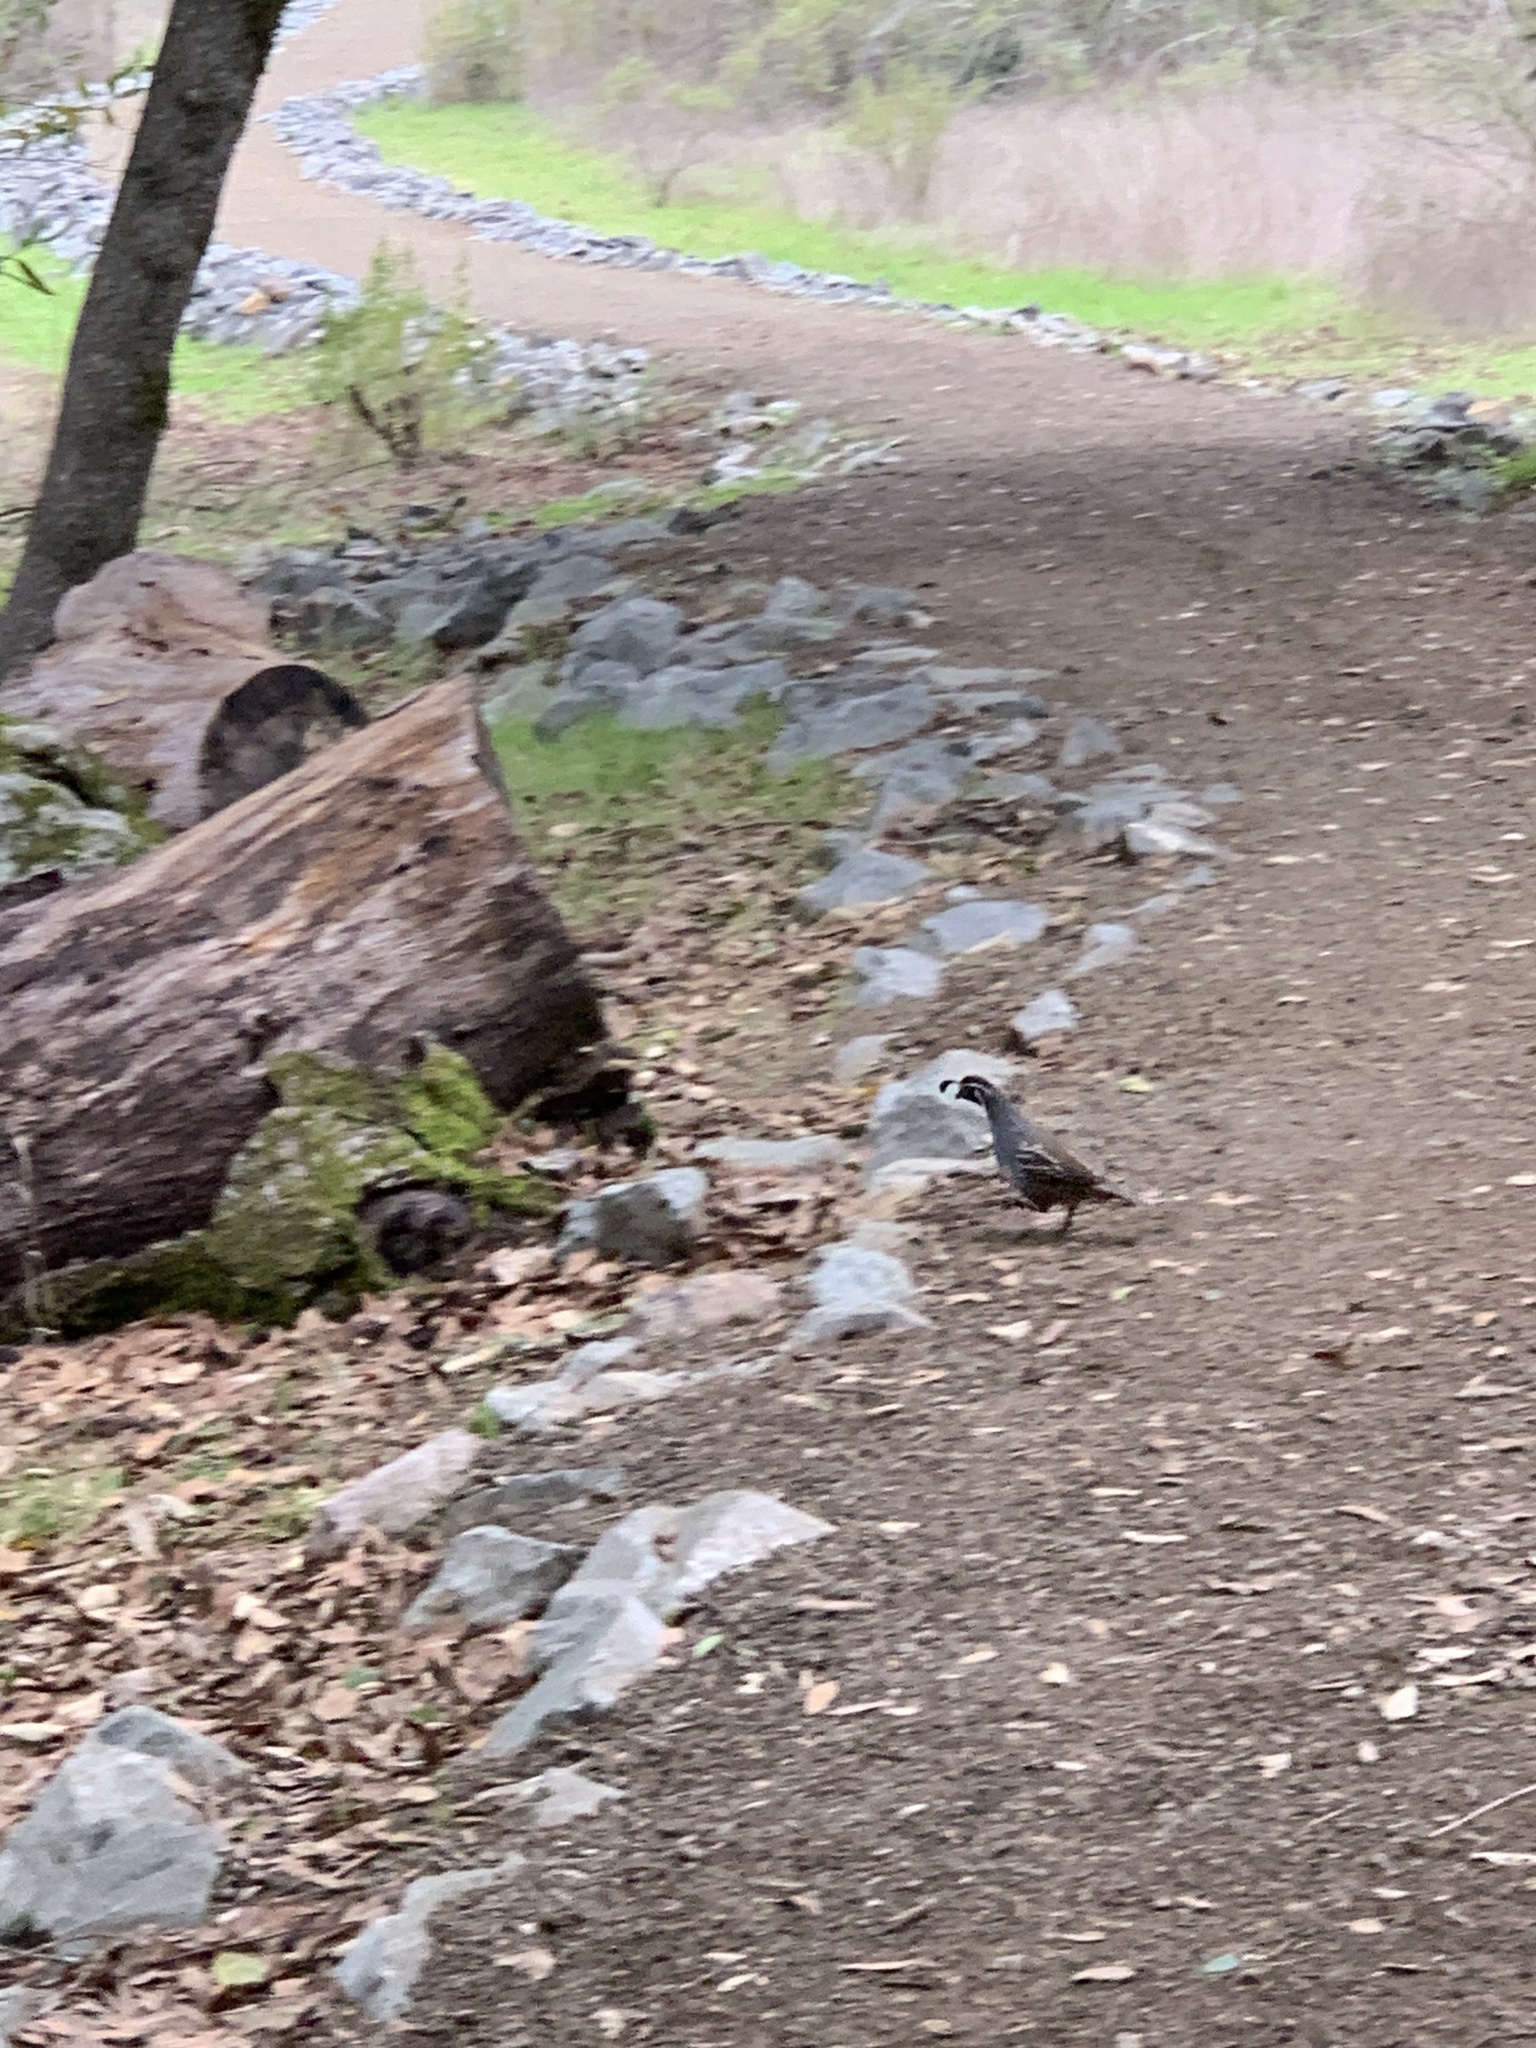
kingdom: Animalia
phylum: Chordata
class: Aves
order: Galliformes
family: Odontophoridae
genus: Callipepla
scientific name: Callipepla californica
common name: California quail
